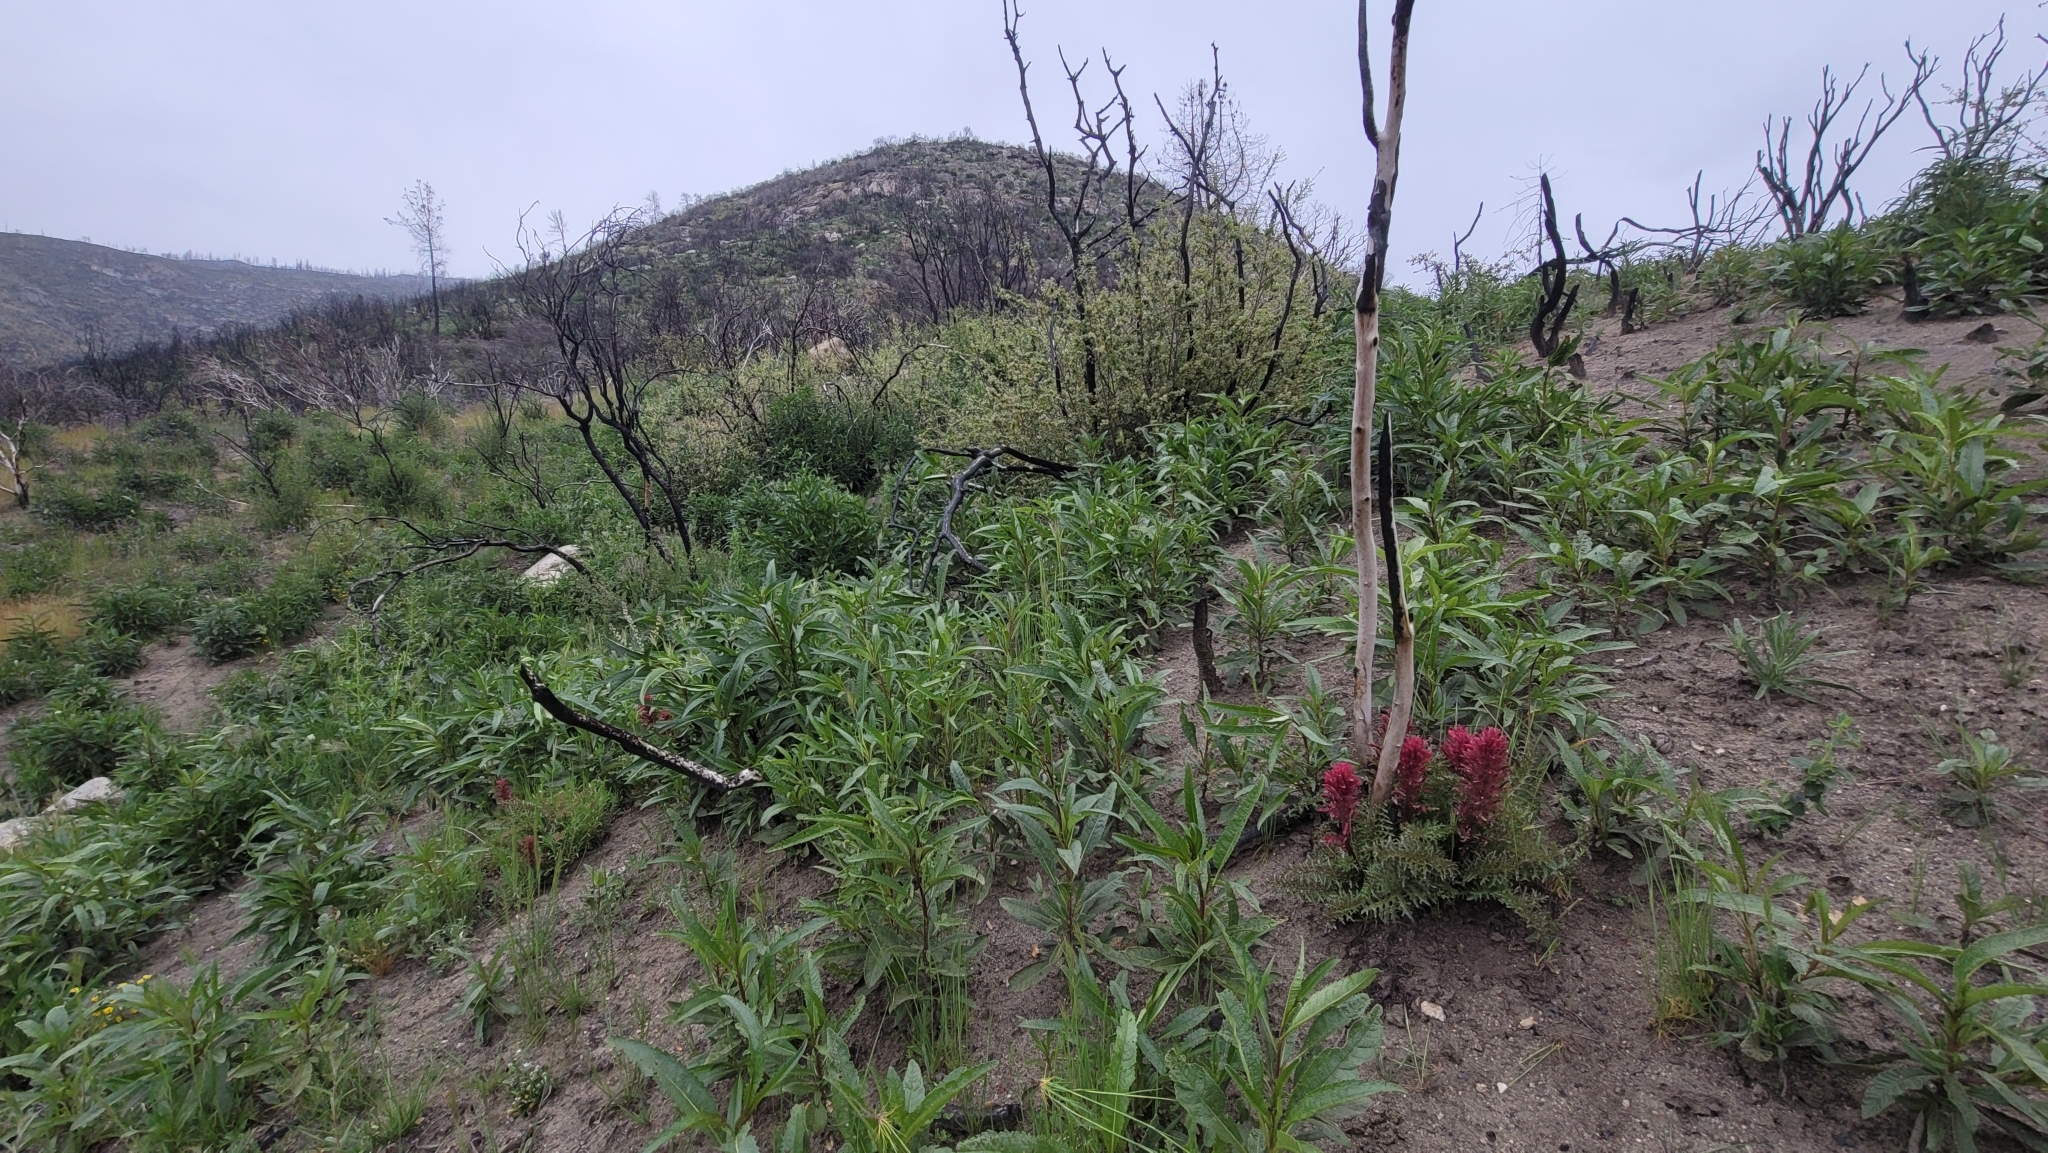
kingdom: Plantae
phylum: Tracheophyta
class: Magnoliopsida
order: Lamiales
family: Orobanchaceae
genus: Pedicularis
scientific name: Pedicularis densiflora
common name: Indian warrior
